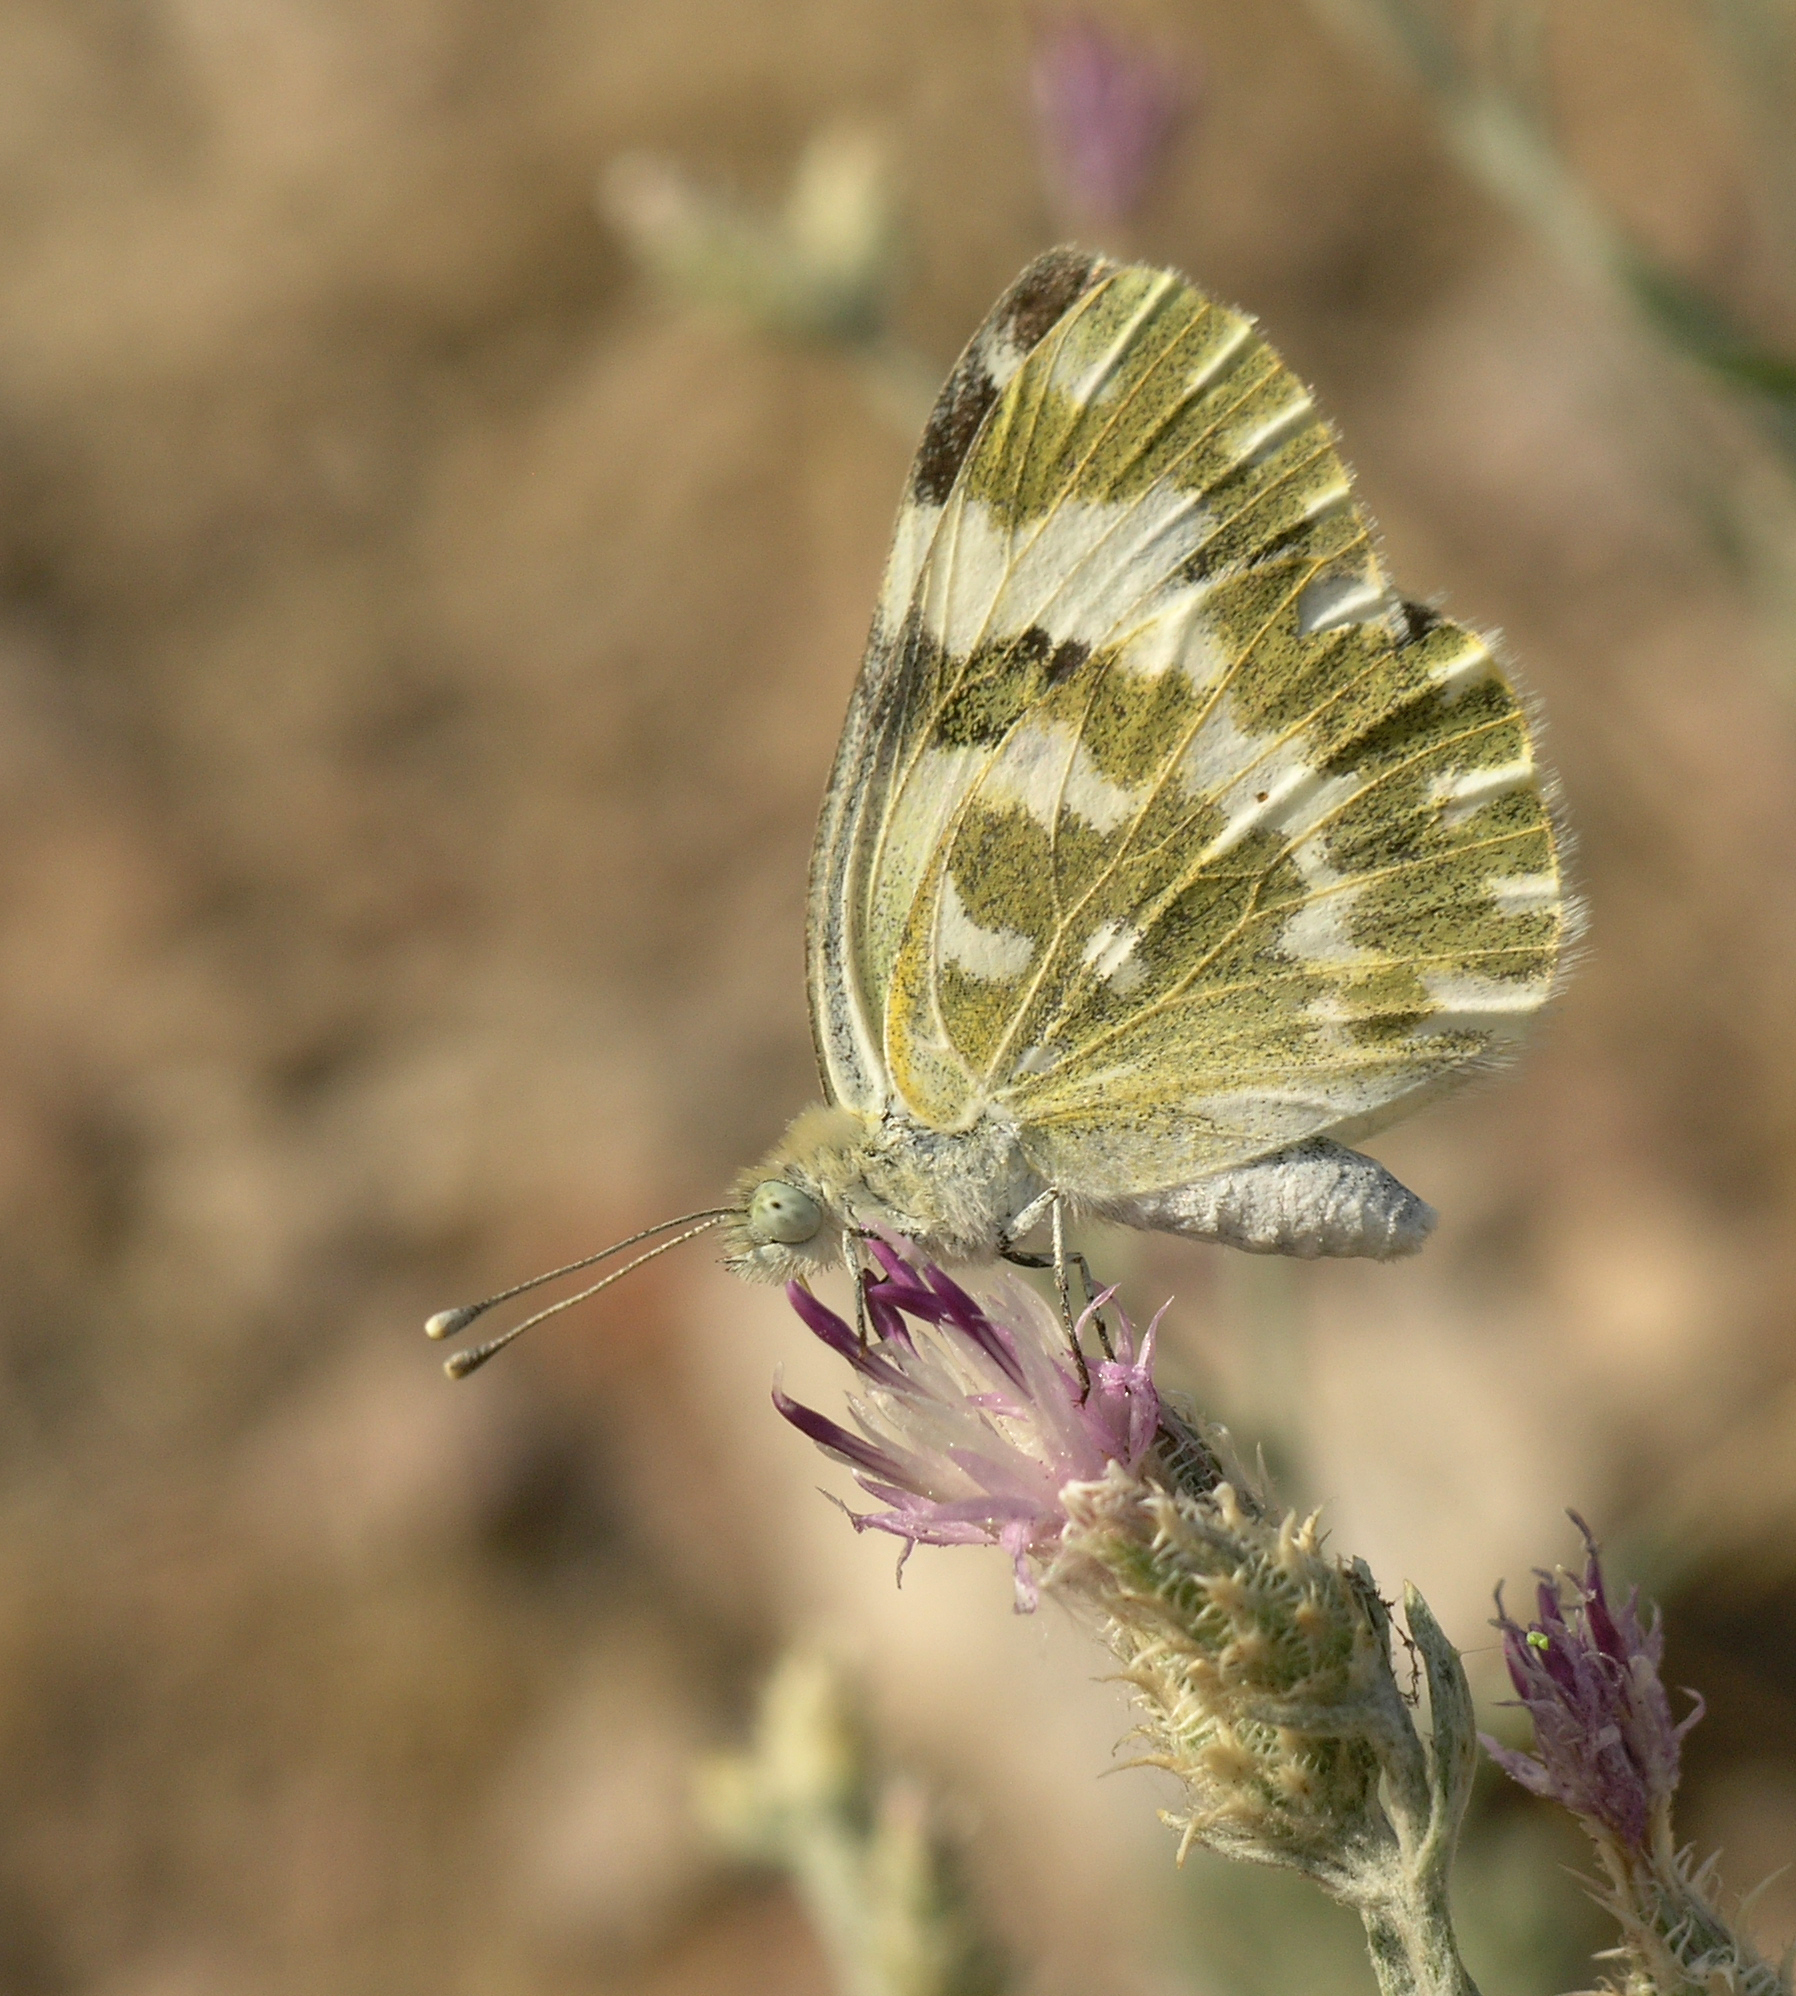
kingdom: Animalia
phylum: Arthropoda
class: Insecta
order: Lepidoptera
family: Pieridae
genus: Pontia
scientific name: Pontia edusa
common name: Eastern bath white
